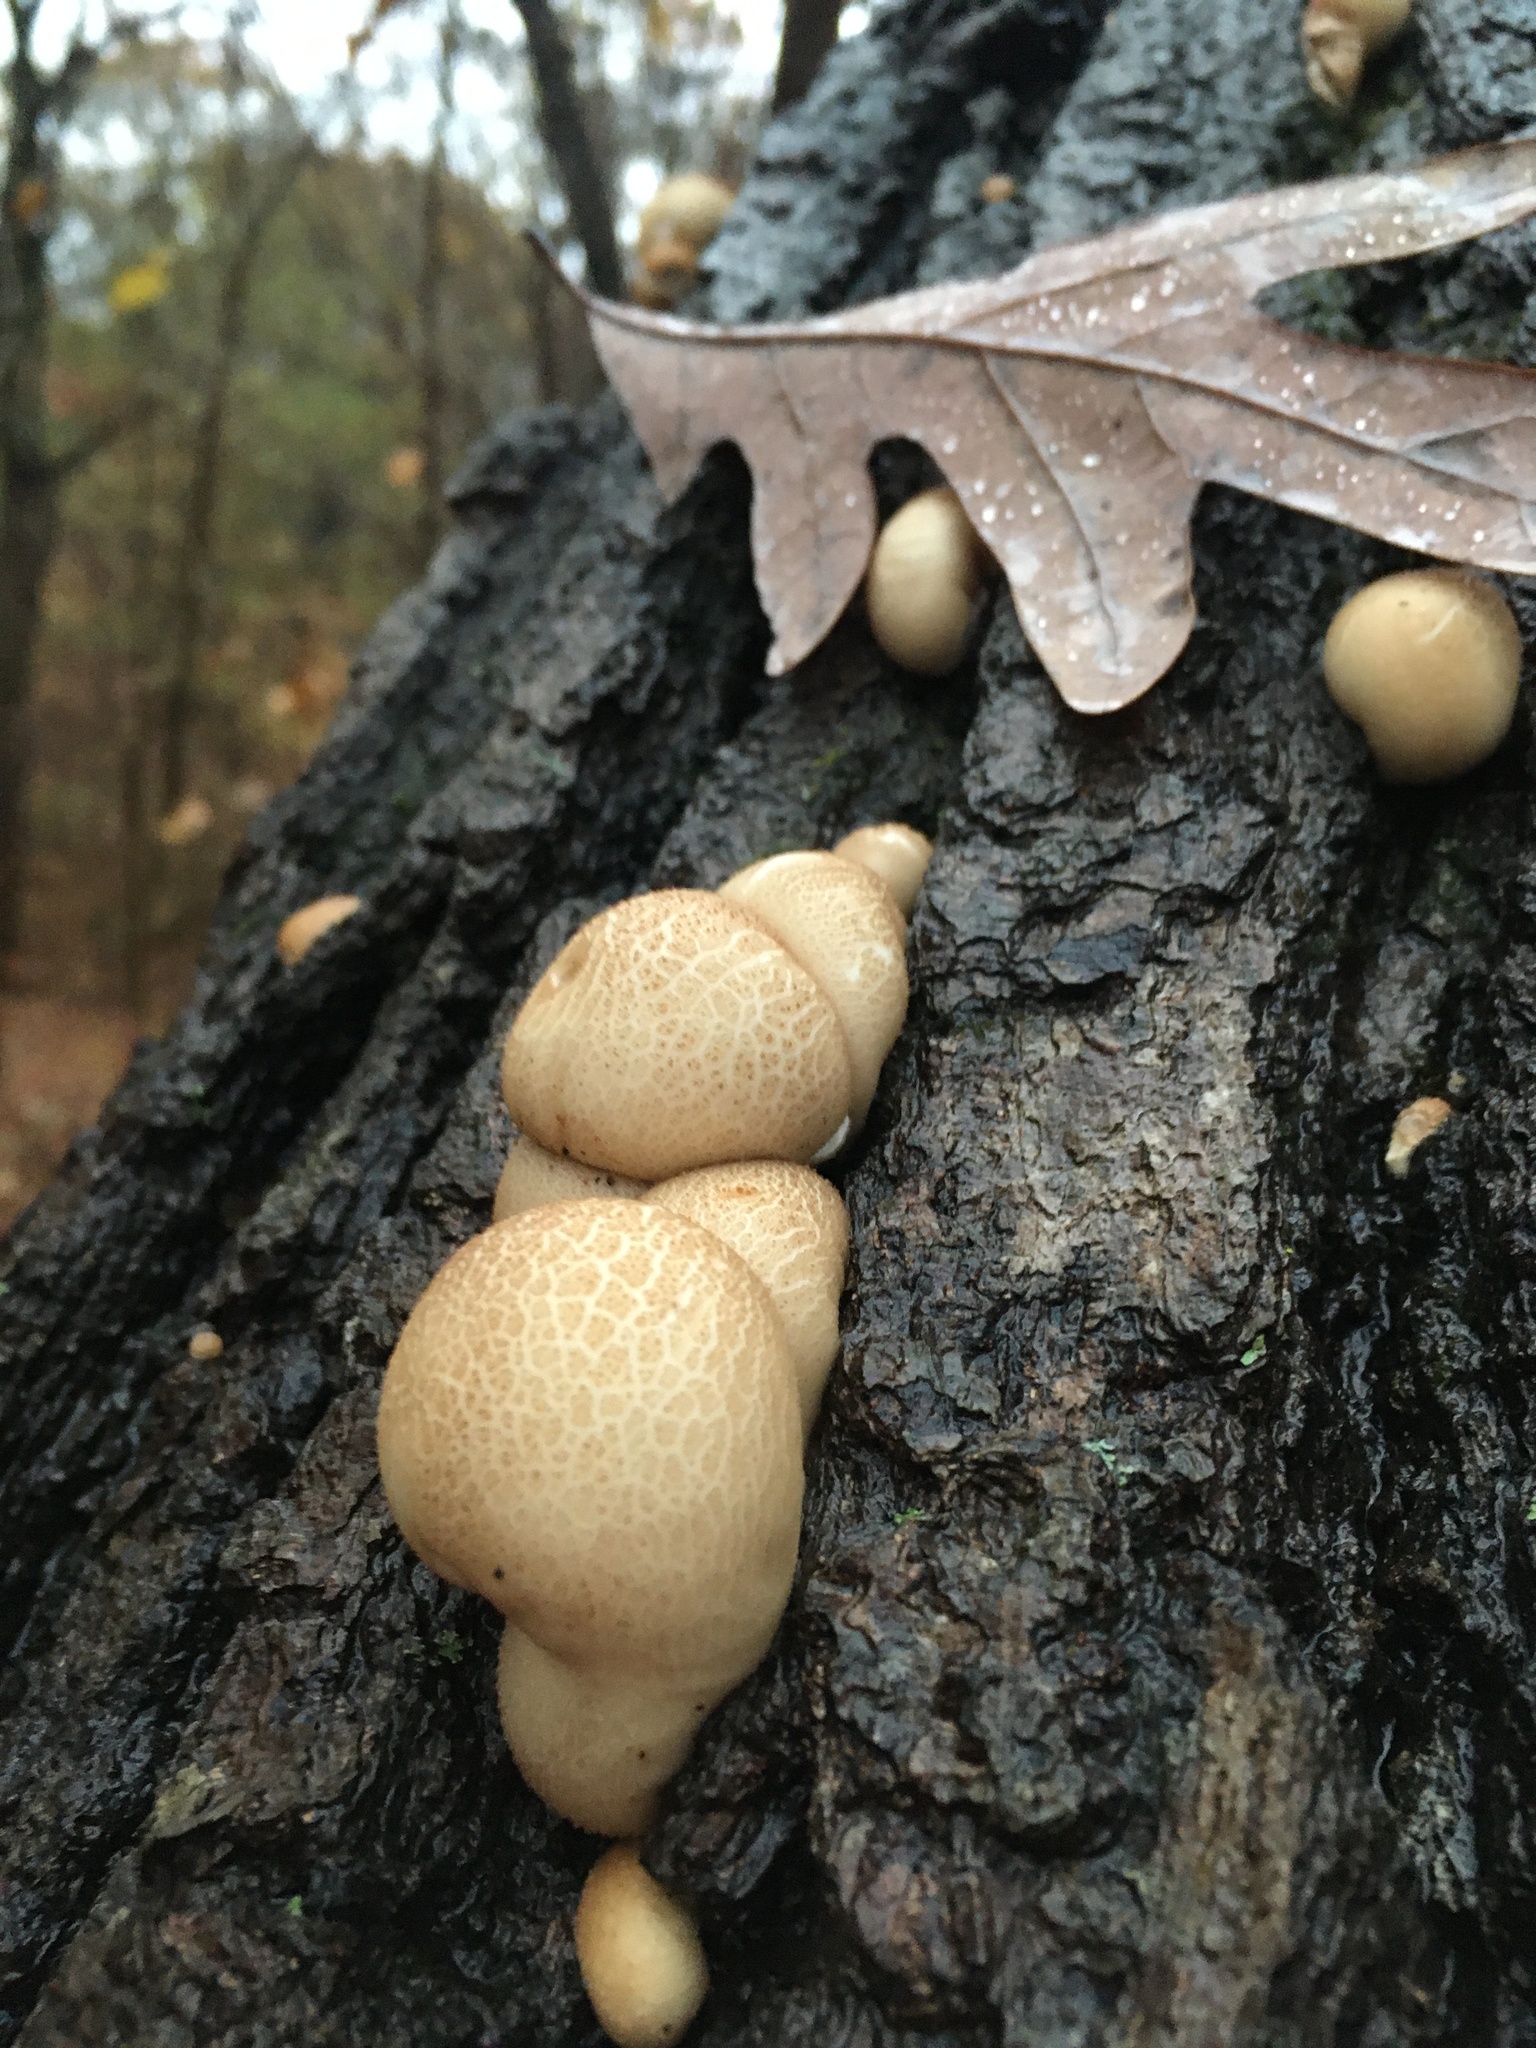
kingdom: Fungi
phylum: Basidiomycota
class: Agaricomycetes
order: Agaricales
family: Lycoperdaceae
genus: Apioperdon
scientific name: Apioperdon pyriforme
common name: Pear-shaped puffball
